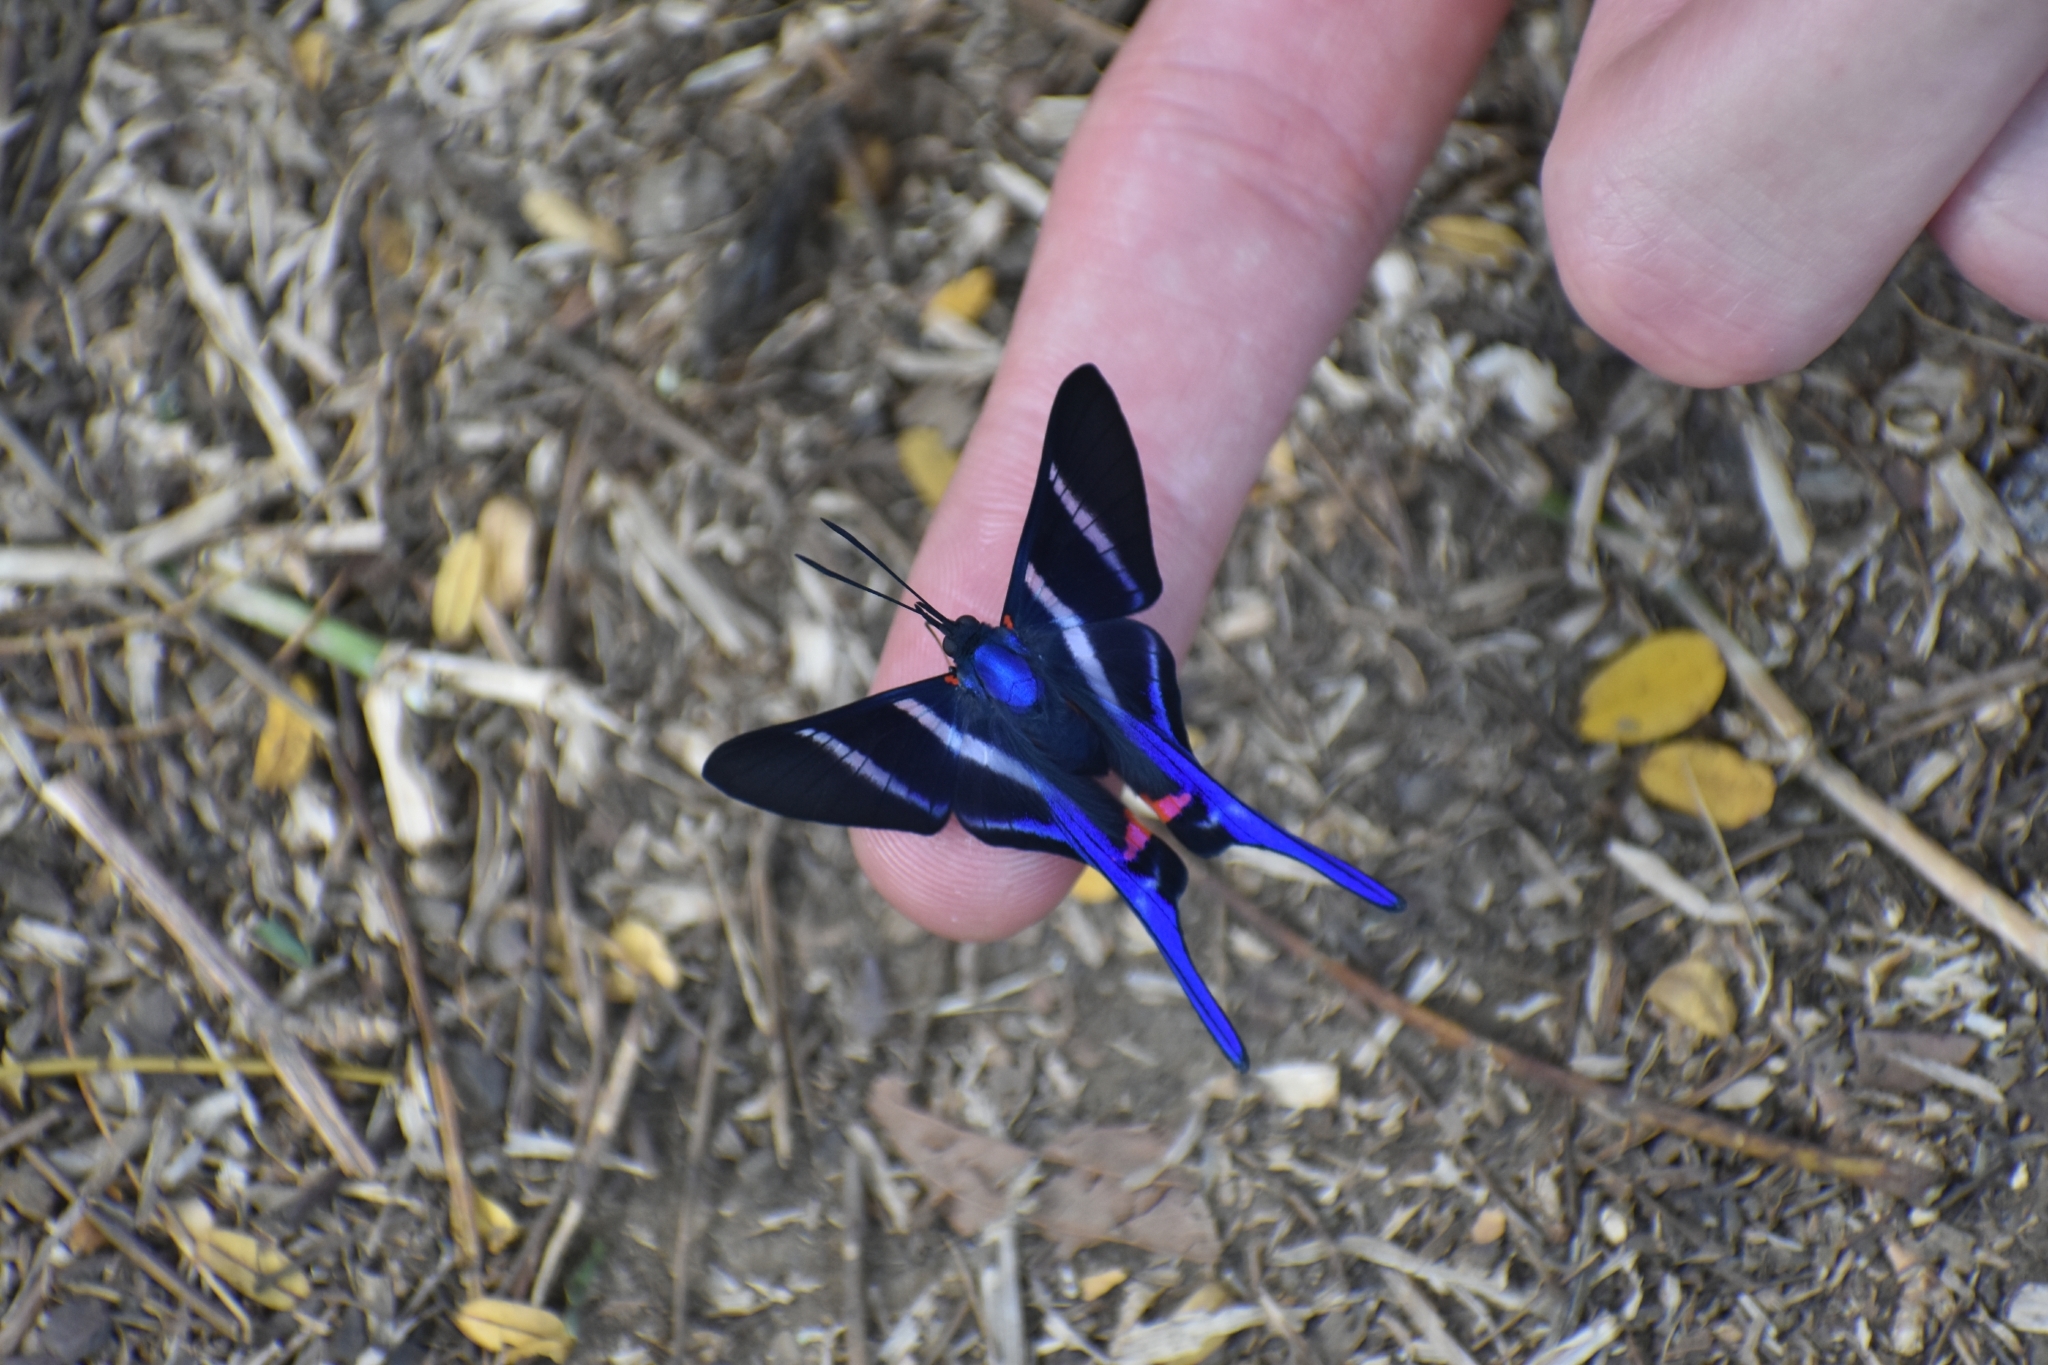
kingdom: Animalia
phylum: Arthropoda
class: Insecta
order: Lepidoptera
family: Riodinidae
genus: Rhetus
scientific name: Rhetus arcius
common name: Long-tailed metalmark
